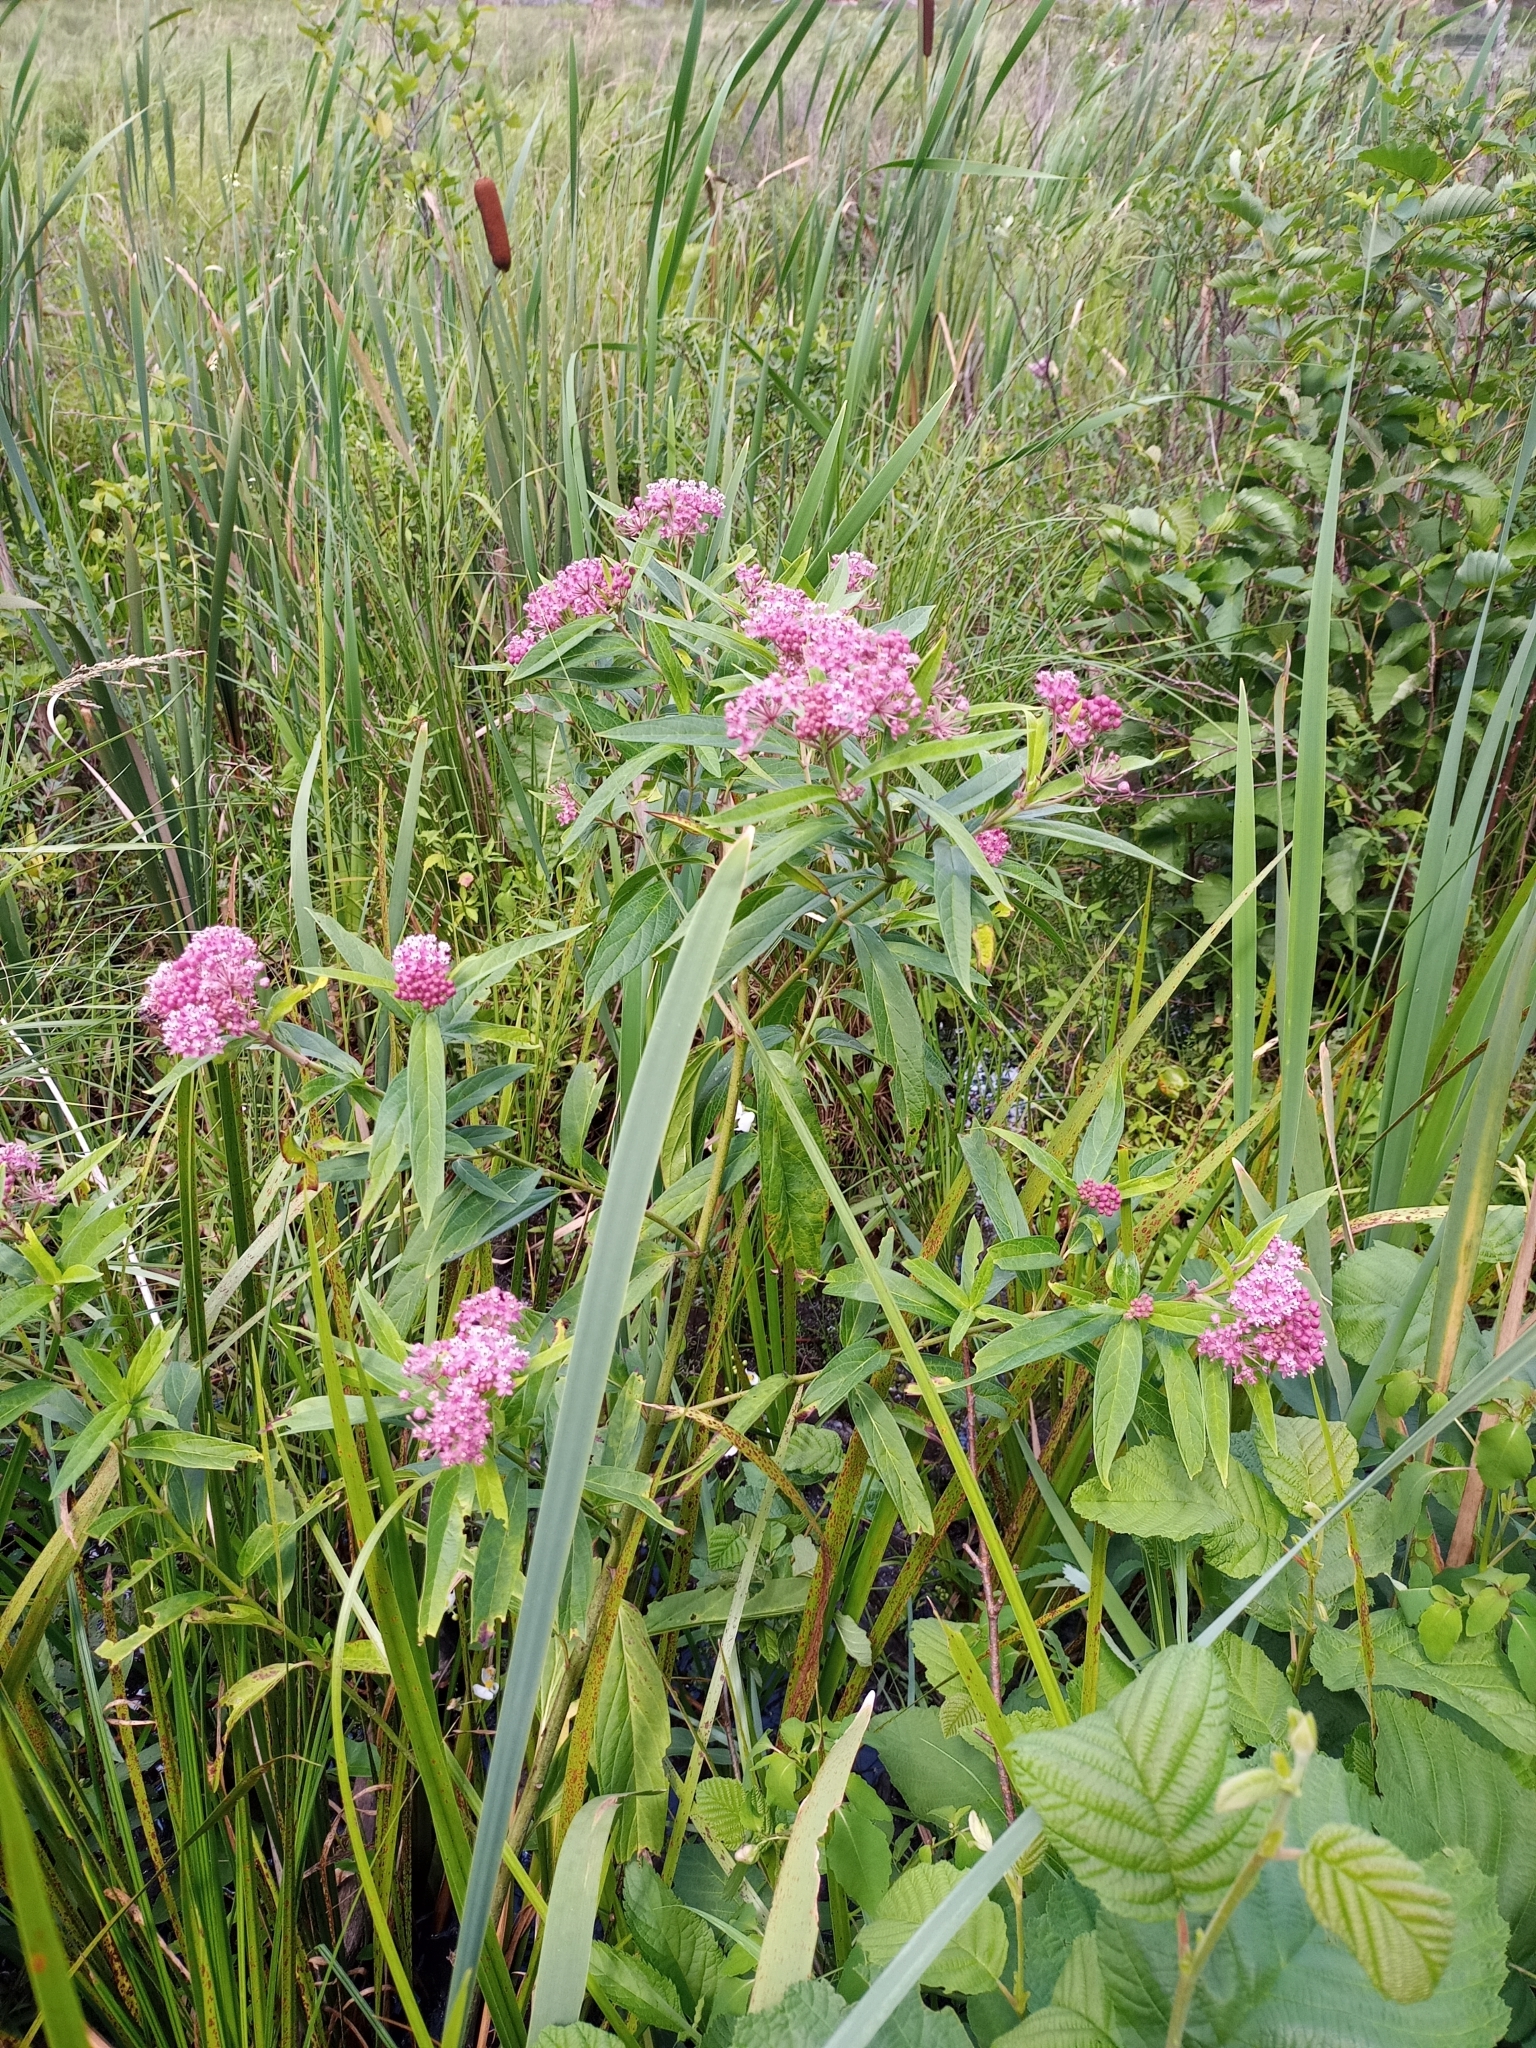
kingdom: Plantae
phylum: Tracheophyta
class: Magnoliopsida
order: Gentianales
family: Apocynaceae
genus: Asclepias
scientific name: Asclepias incarnata
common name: Swamp milkweed
